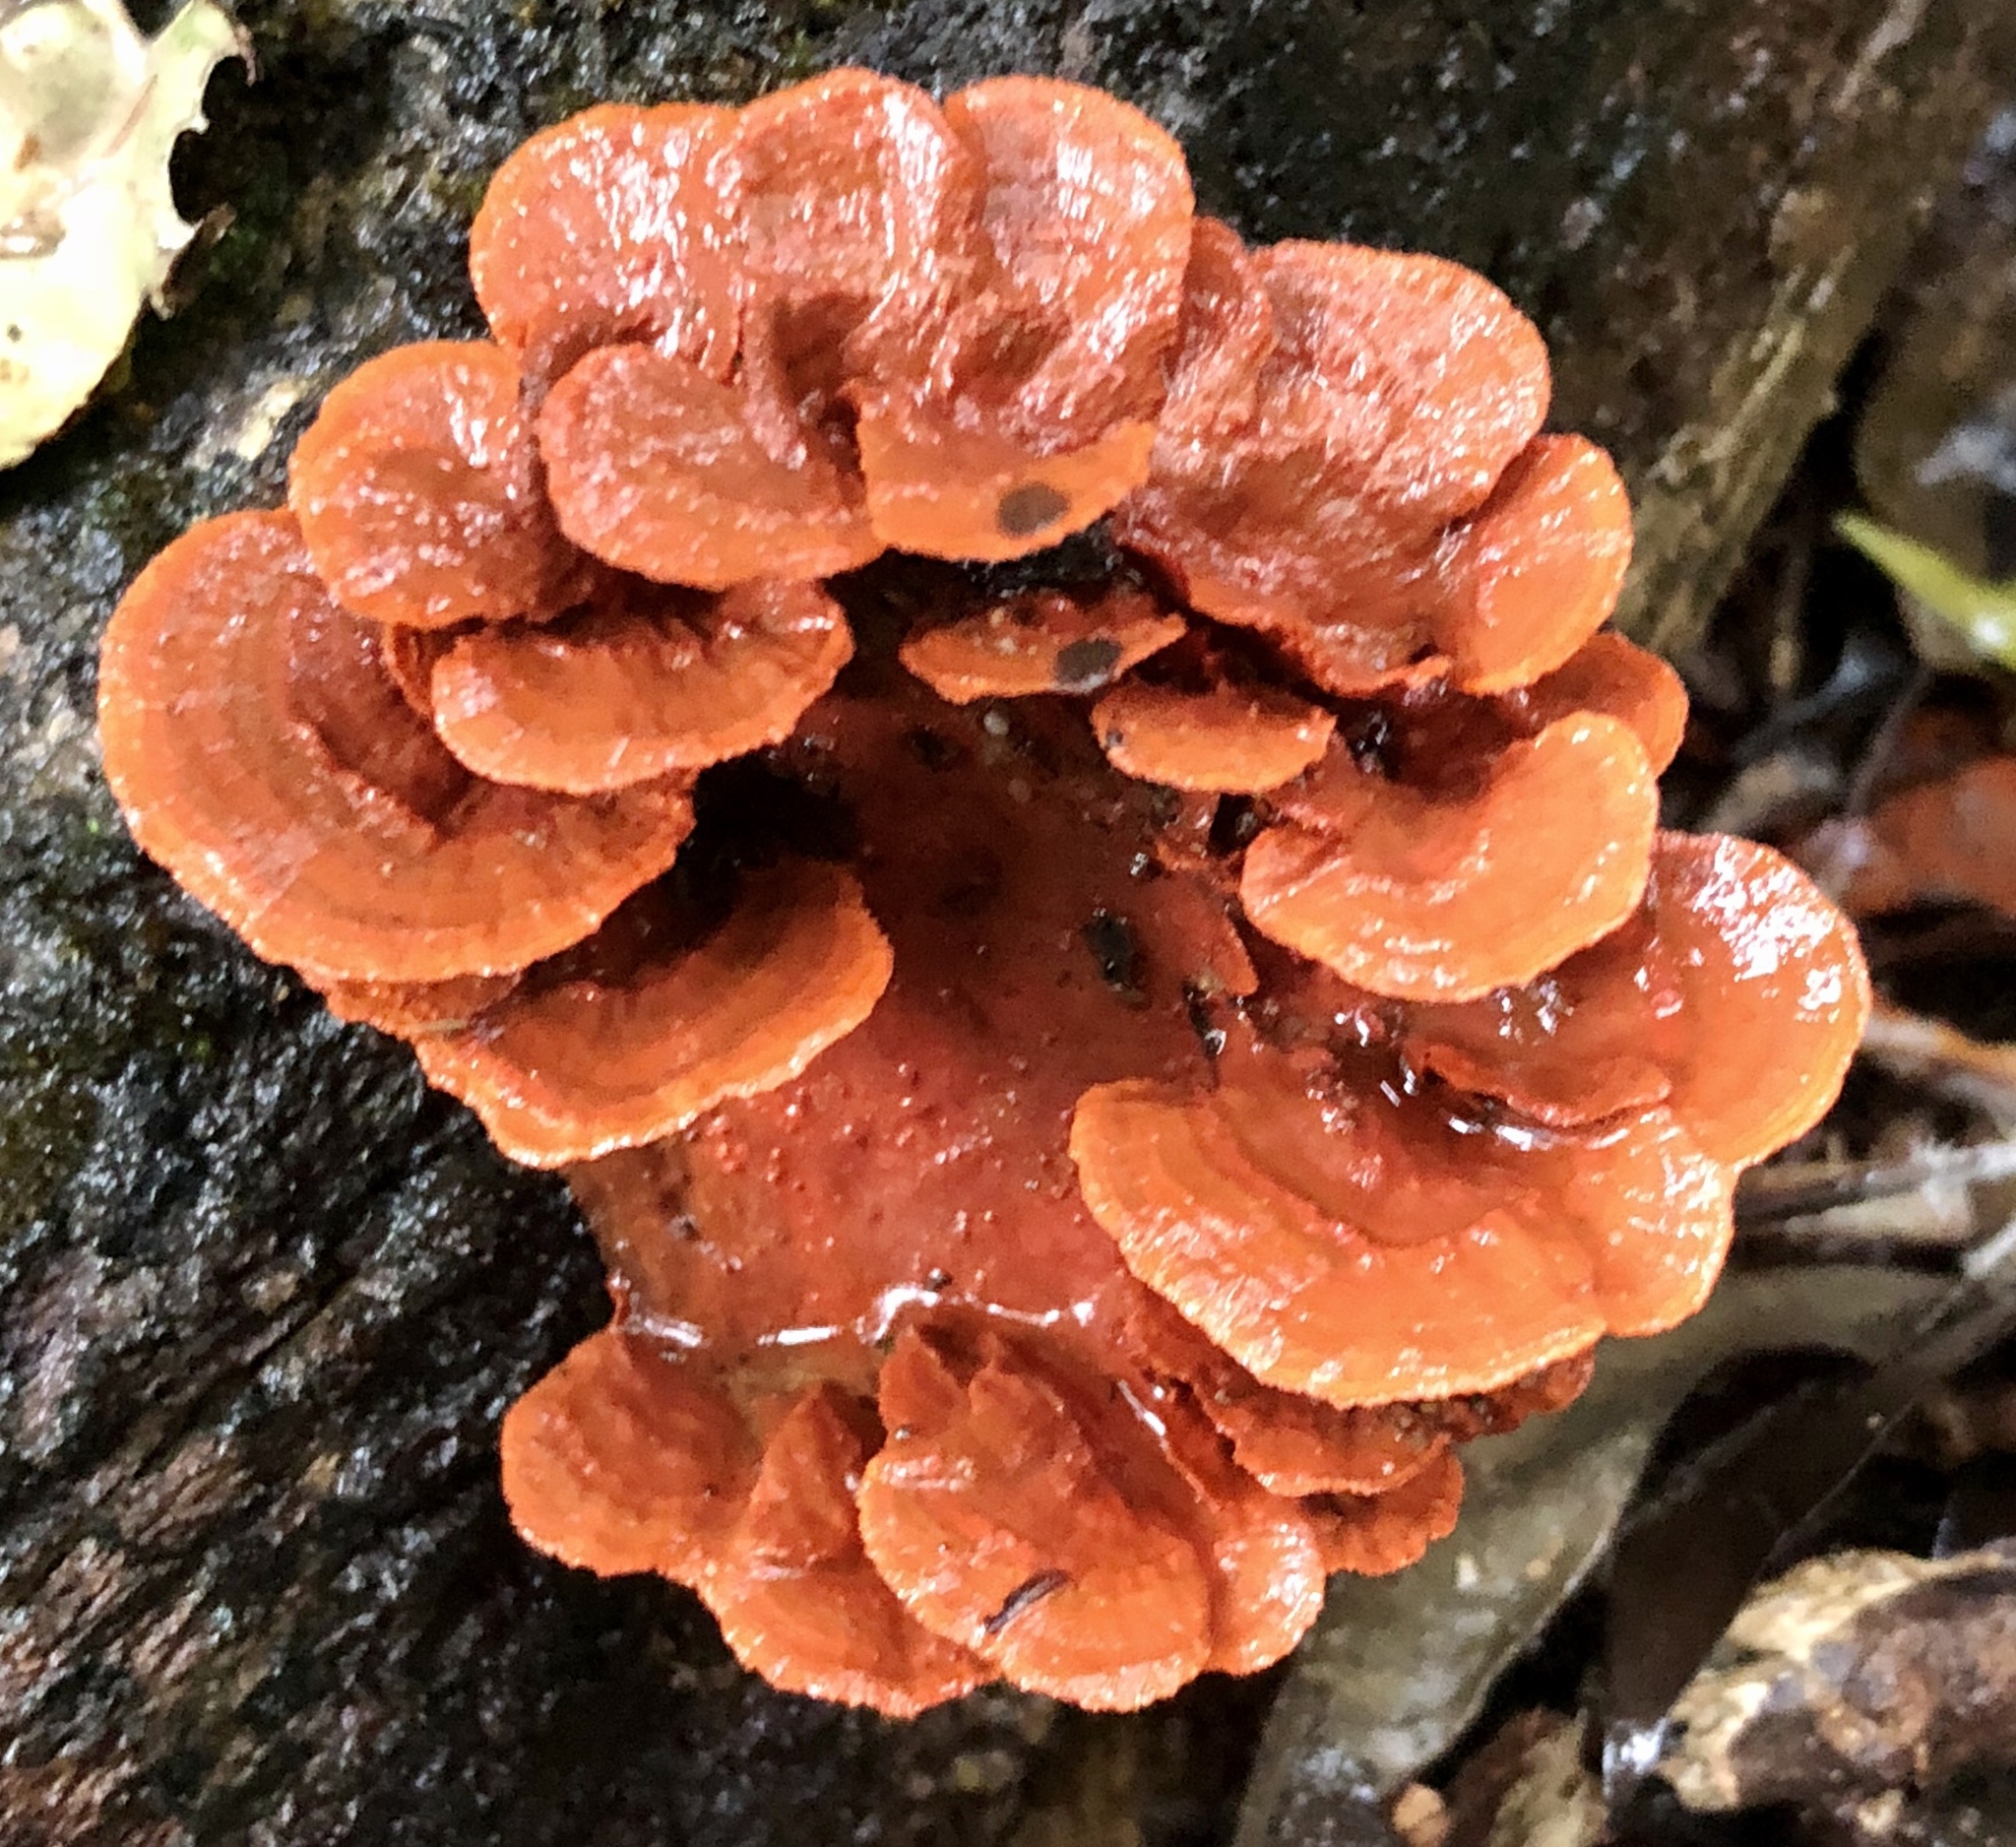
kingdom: Fungi
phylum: Basidiomycota
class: Agaricomycetes
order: Polyporales
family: Polyporaceae
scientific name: Polyporaceae
